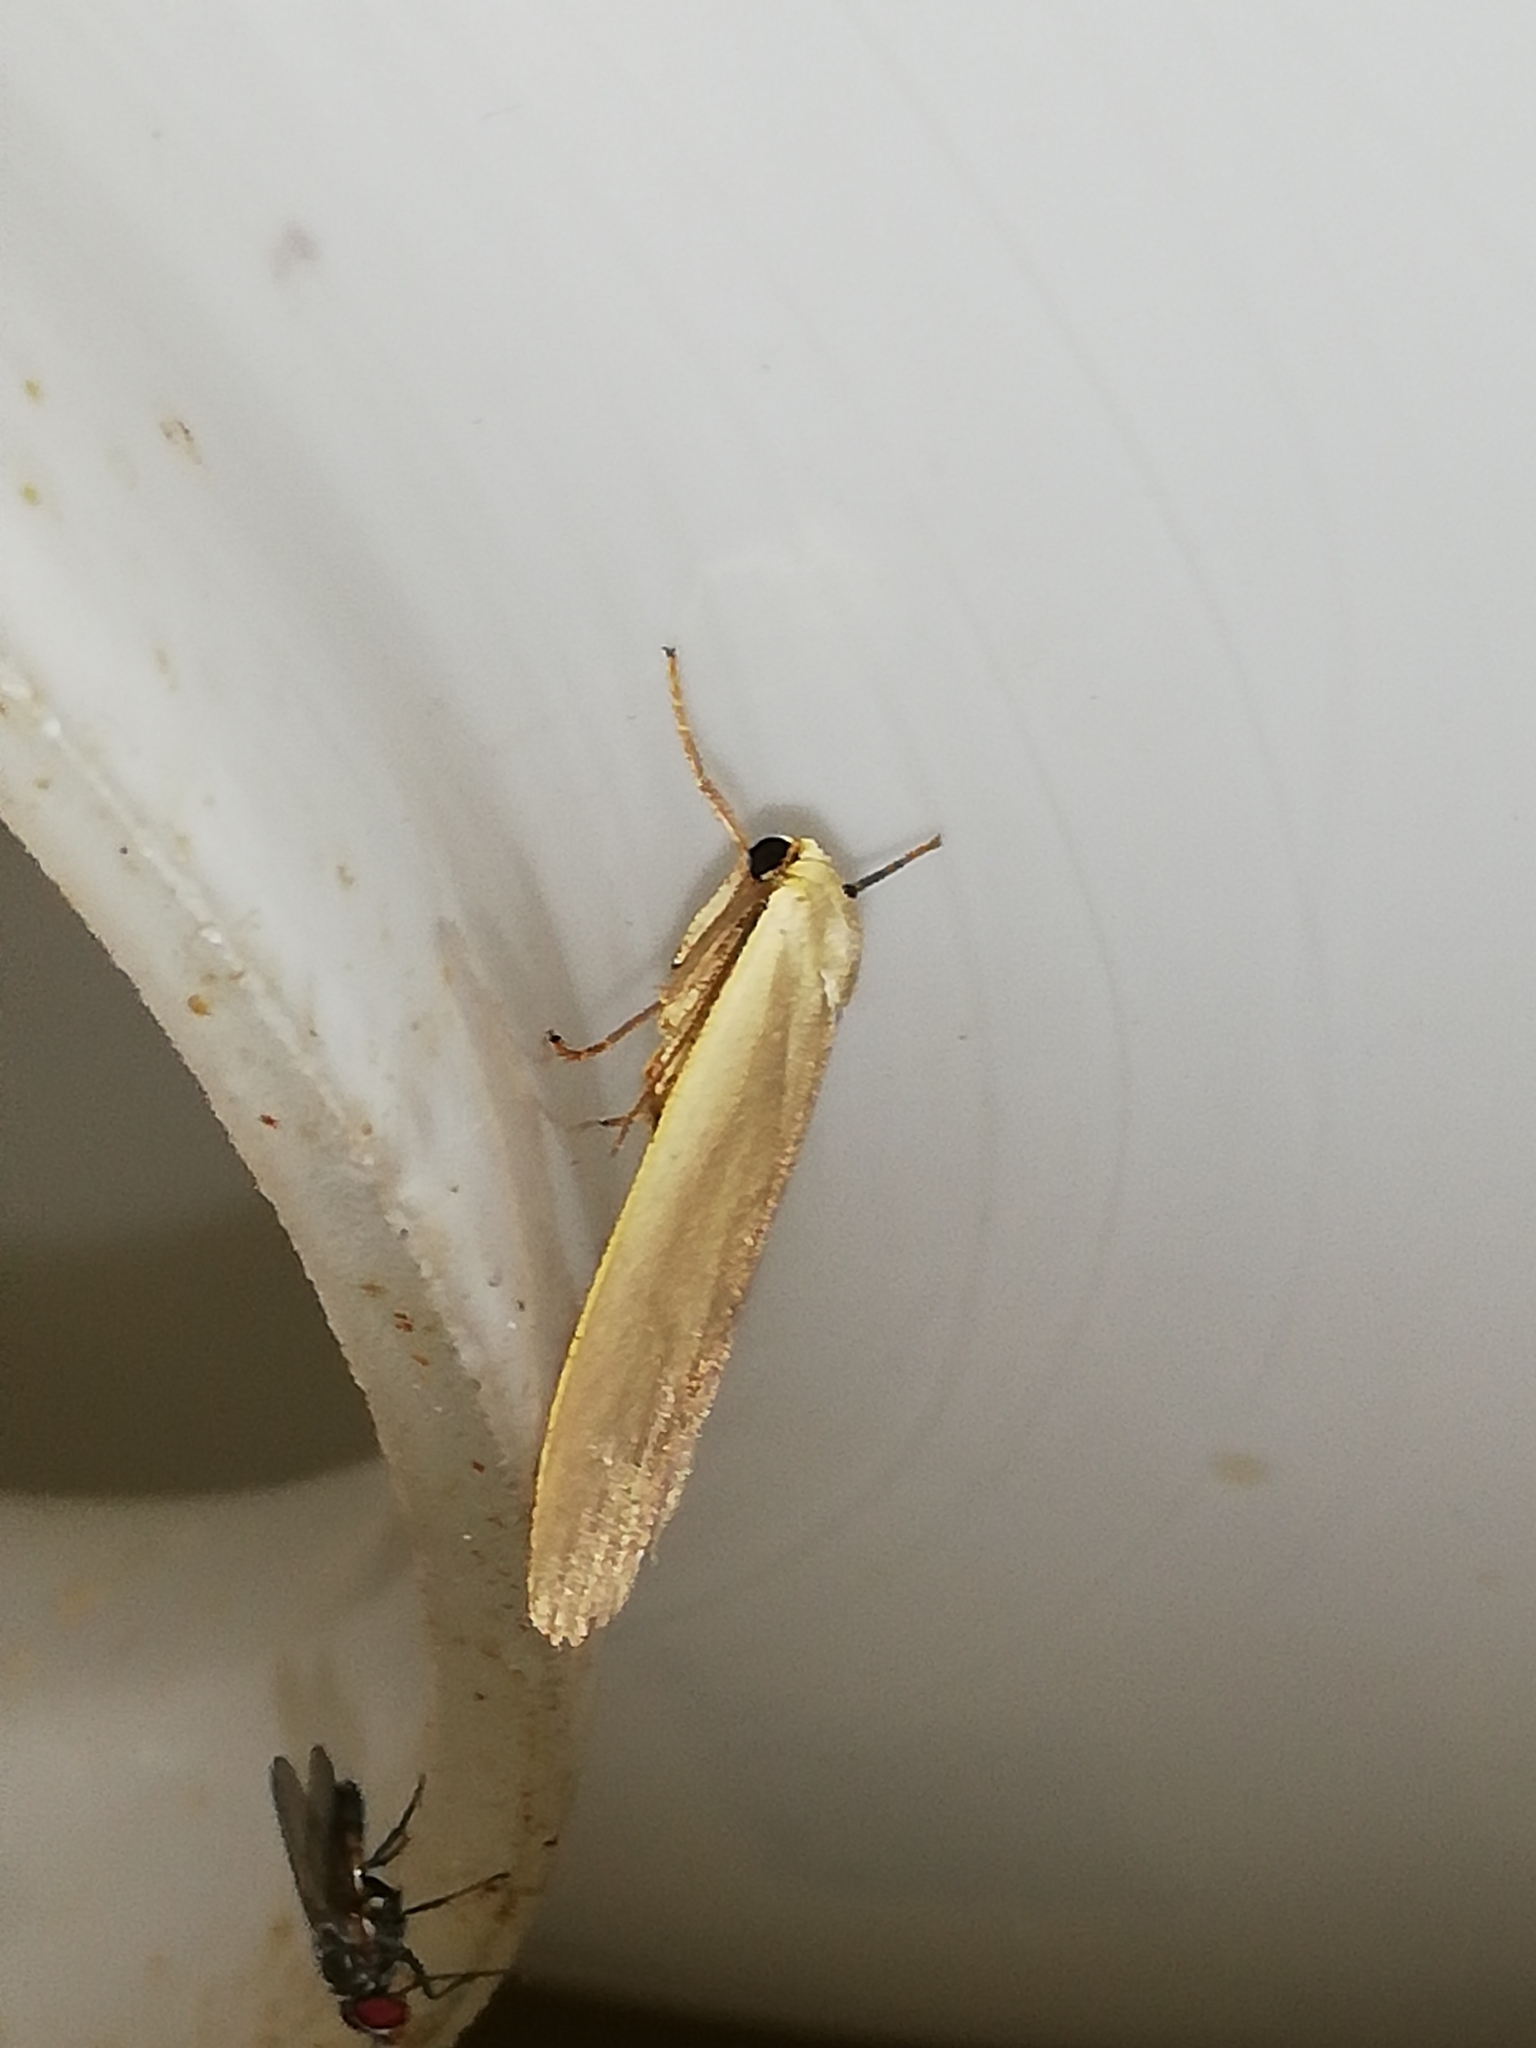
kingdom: Animalia
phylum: Arthropoda
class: Insecta
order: Lepidoptera
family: Erebidae
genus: Collita
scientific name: Collita griseola
